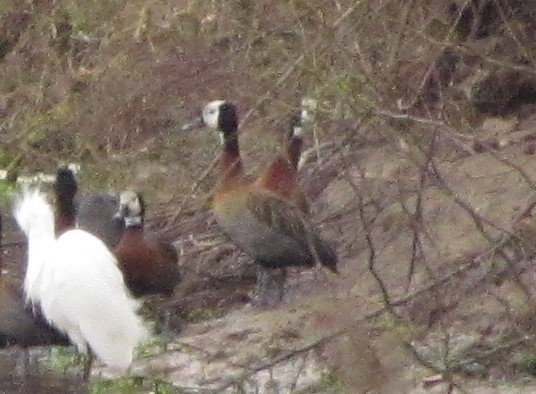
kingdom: Animalia
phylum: Chordata
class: Aves
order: Anseriformes
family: Anatidae
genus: Dendrocygna
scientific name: Dendrocygna viduata
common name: White-faced whistling duck
